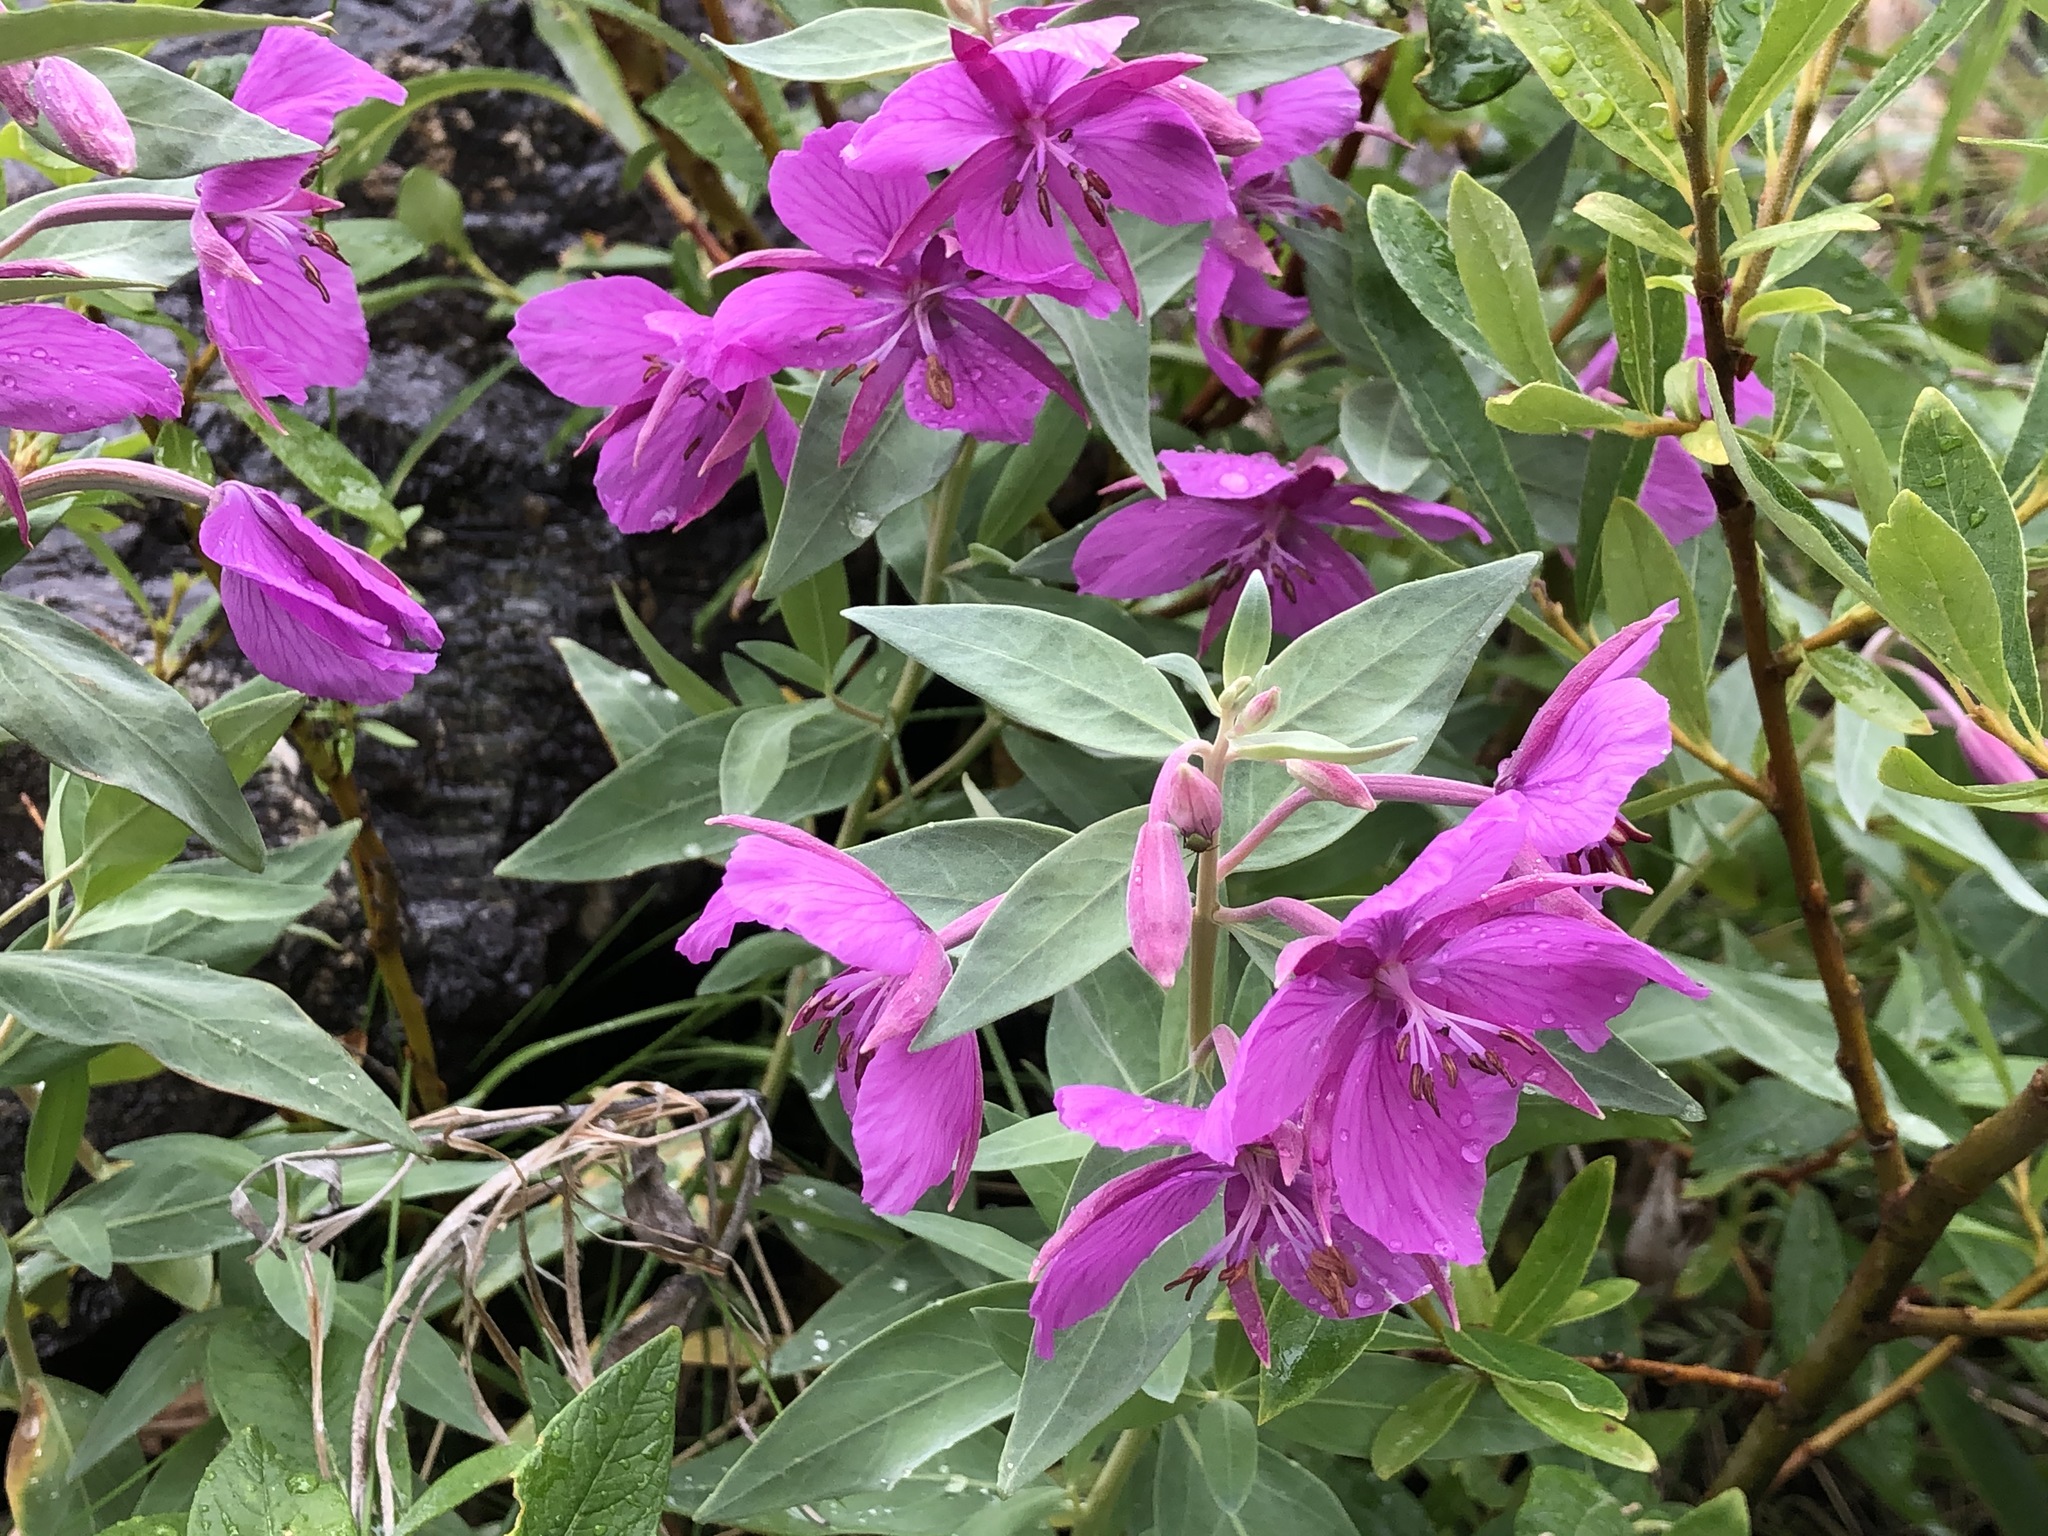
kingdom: Plantae
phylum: Tracheophyta
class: Magnoliopsida
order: Myrtales
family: Onagraceae
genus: Chamaenerion
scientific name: Chamaenerion latifolium
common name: Dwarf fireweed
